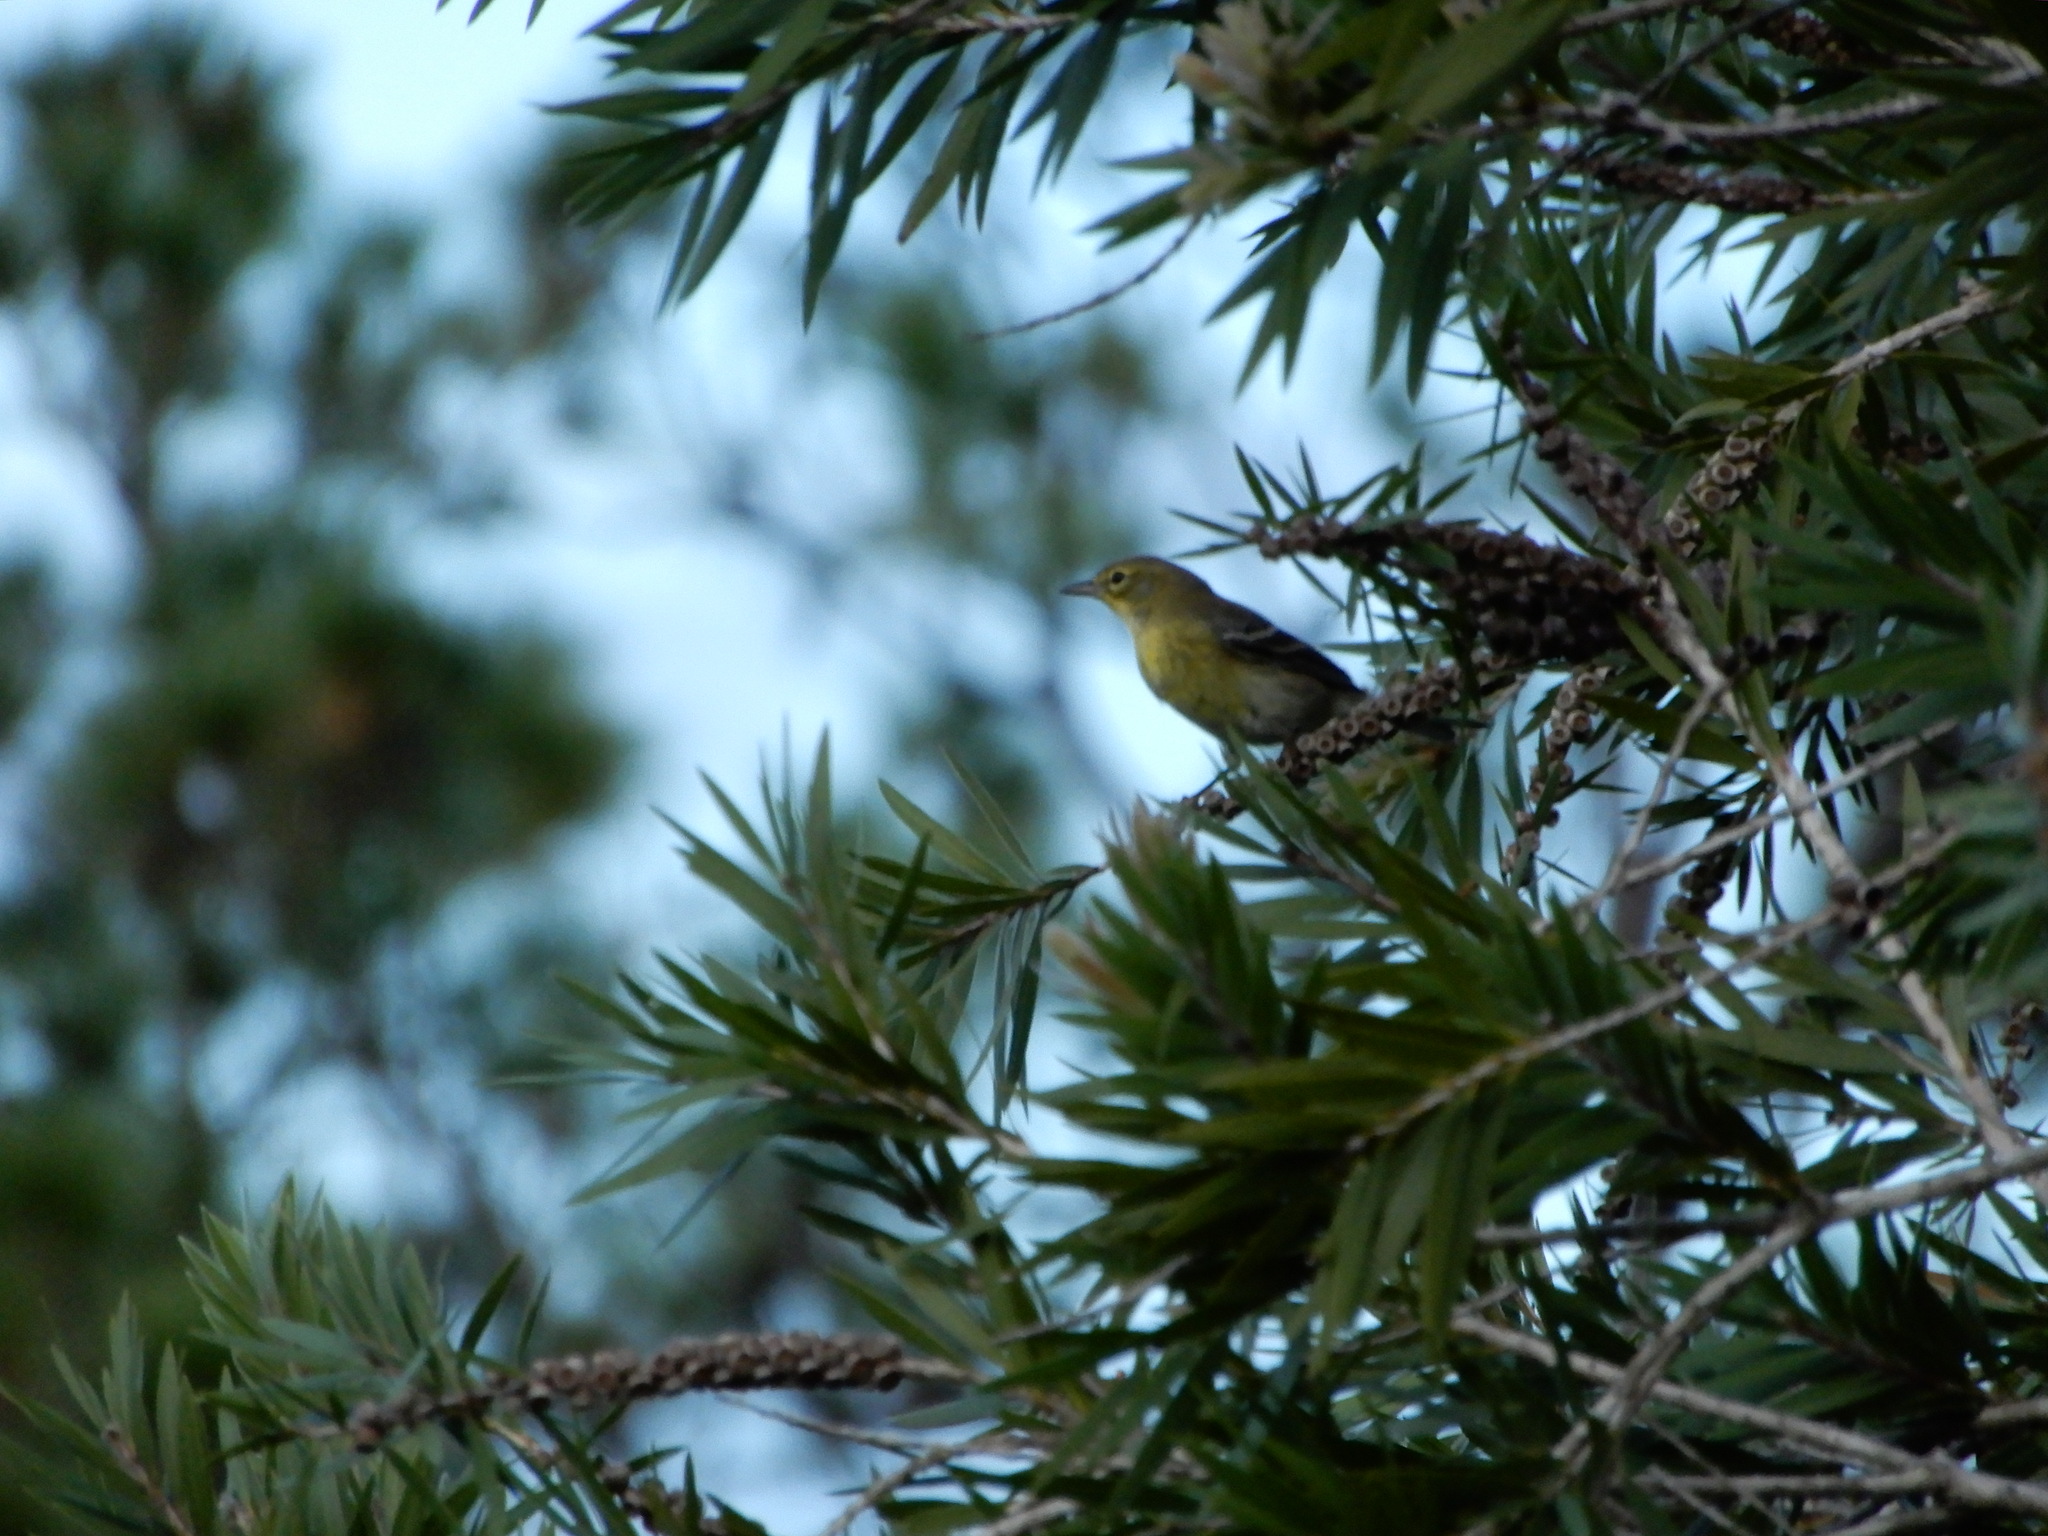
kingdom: Animalia
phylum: Chordata
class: Aves
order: Passeriformes
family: Parulidae
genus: Setophaga
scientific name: Setophaga pinus
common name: Pine warbler
